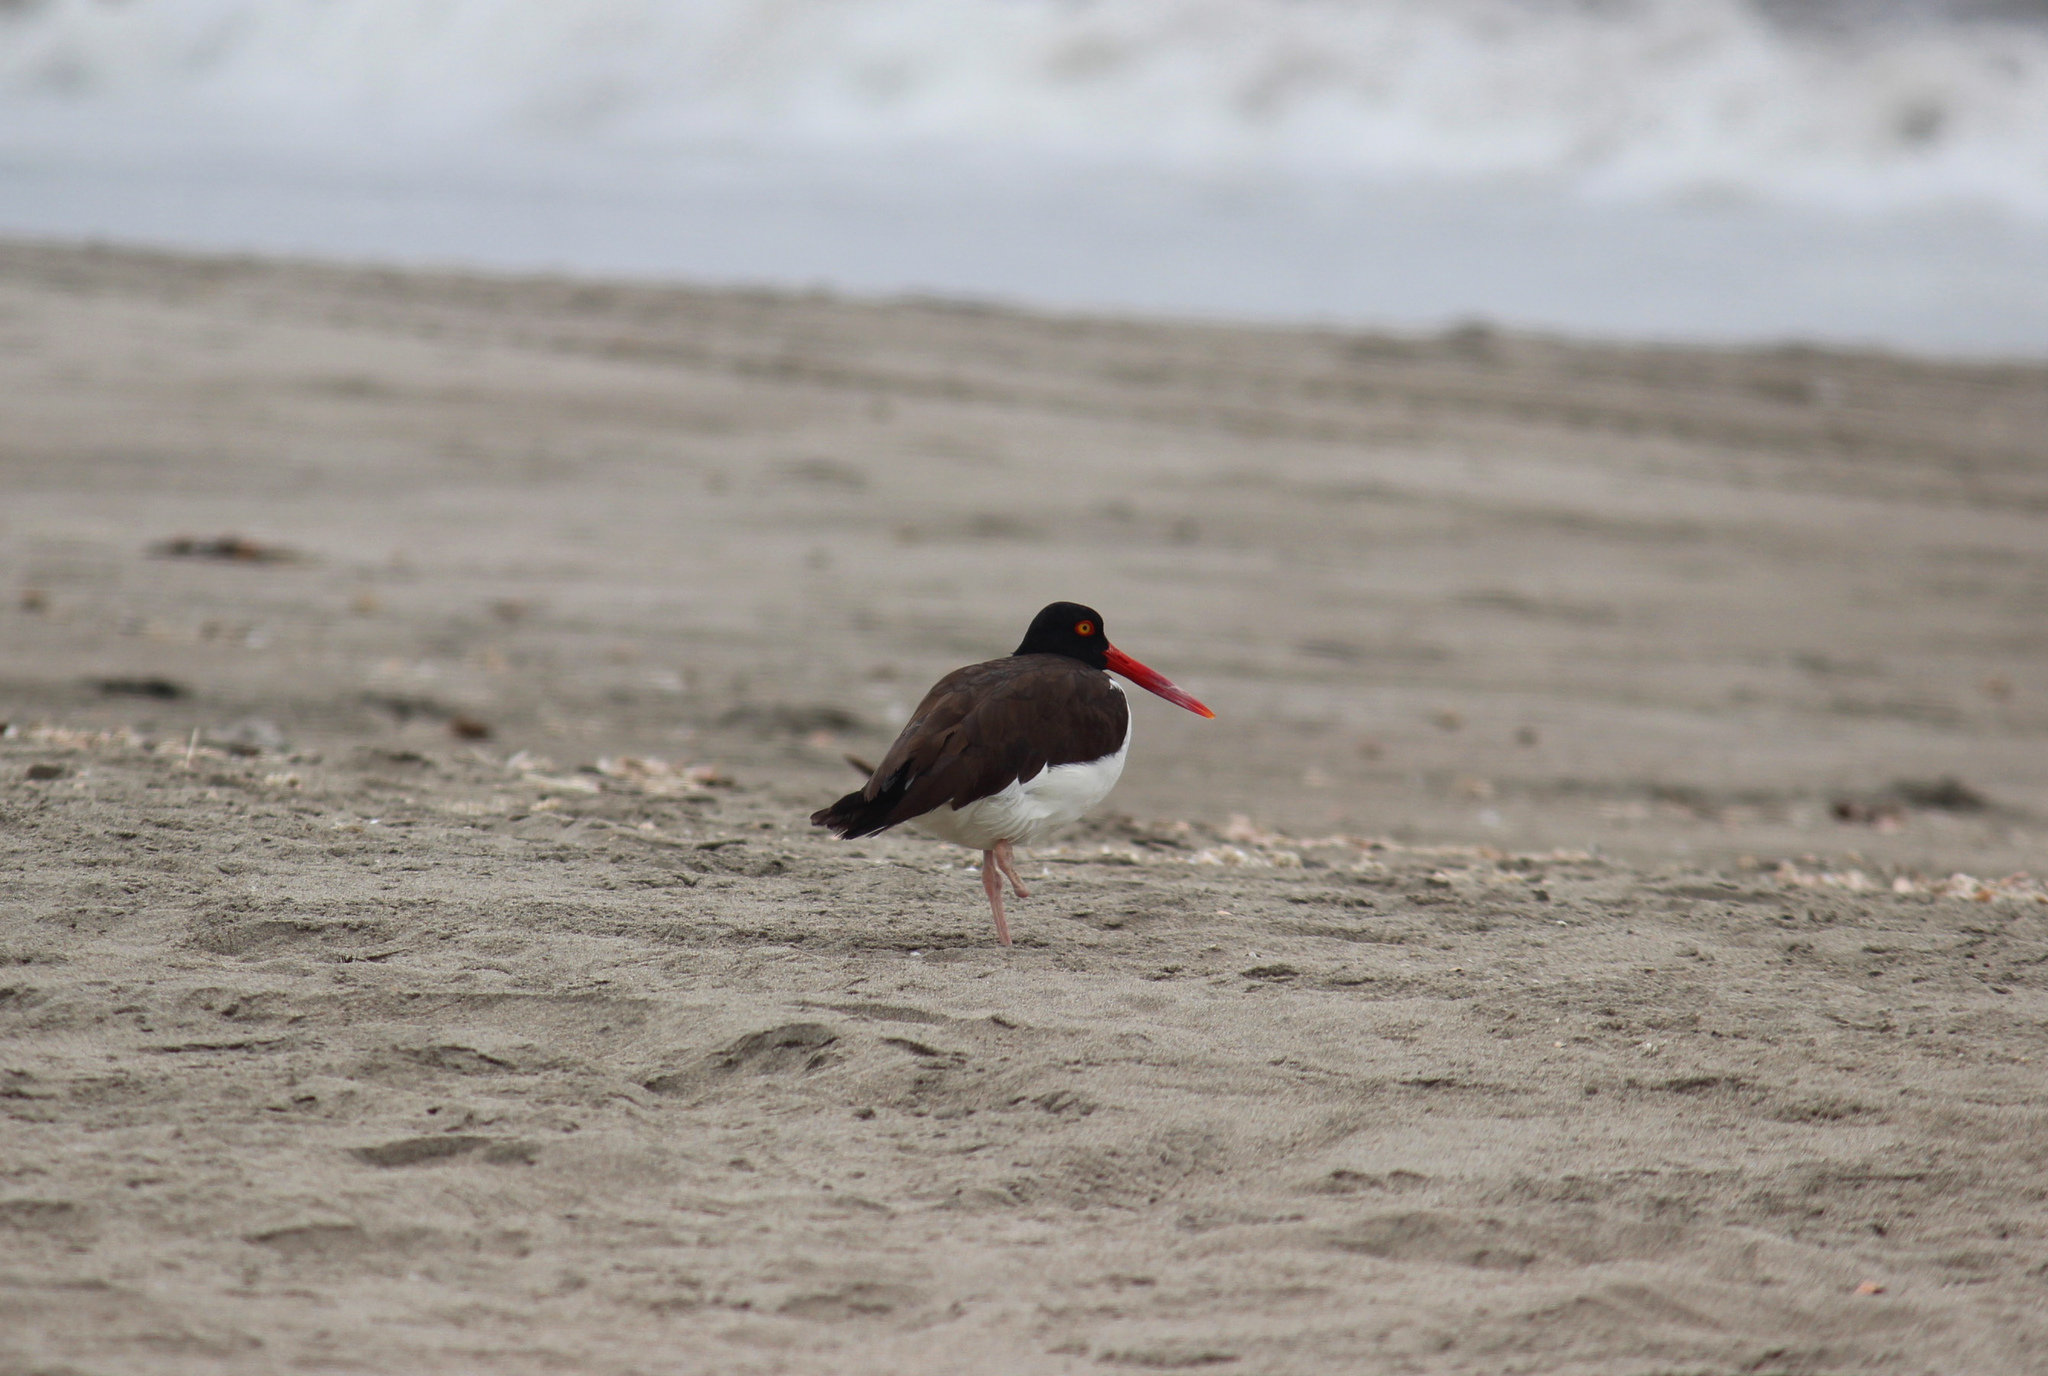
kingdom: Animalia
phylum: Chordata
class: Aves
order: Charadriiformes
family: Haematopodidae
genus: Haematopus
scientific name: Haematopus palliatus
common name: American oystercatcher
